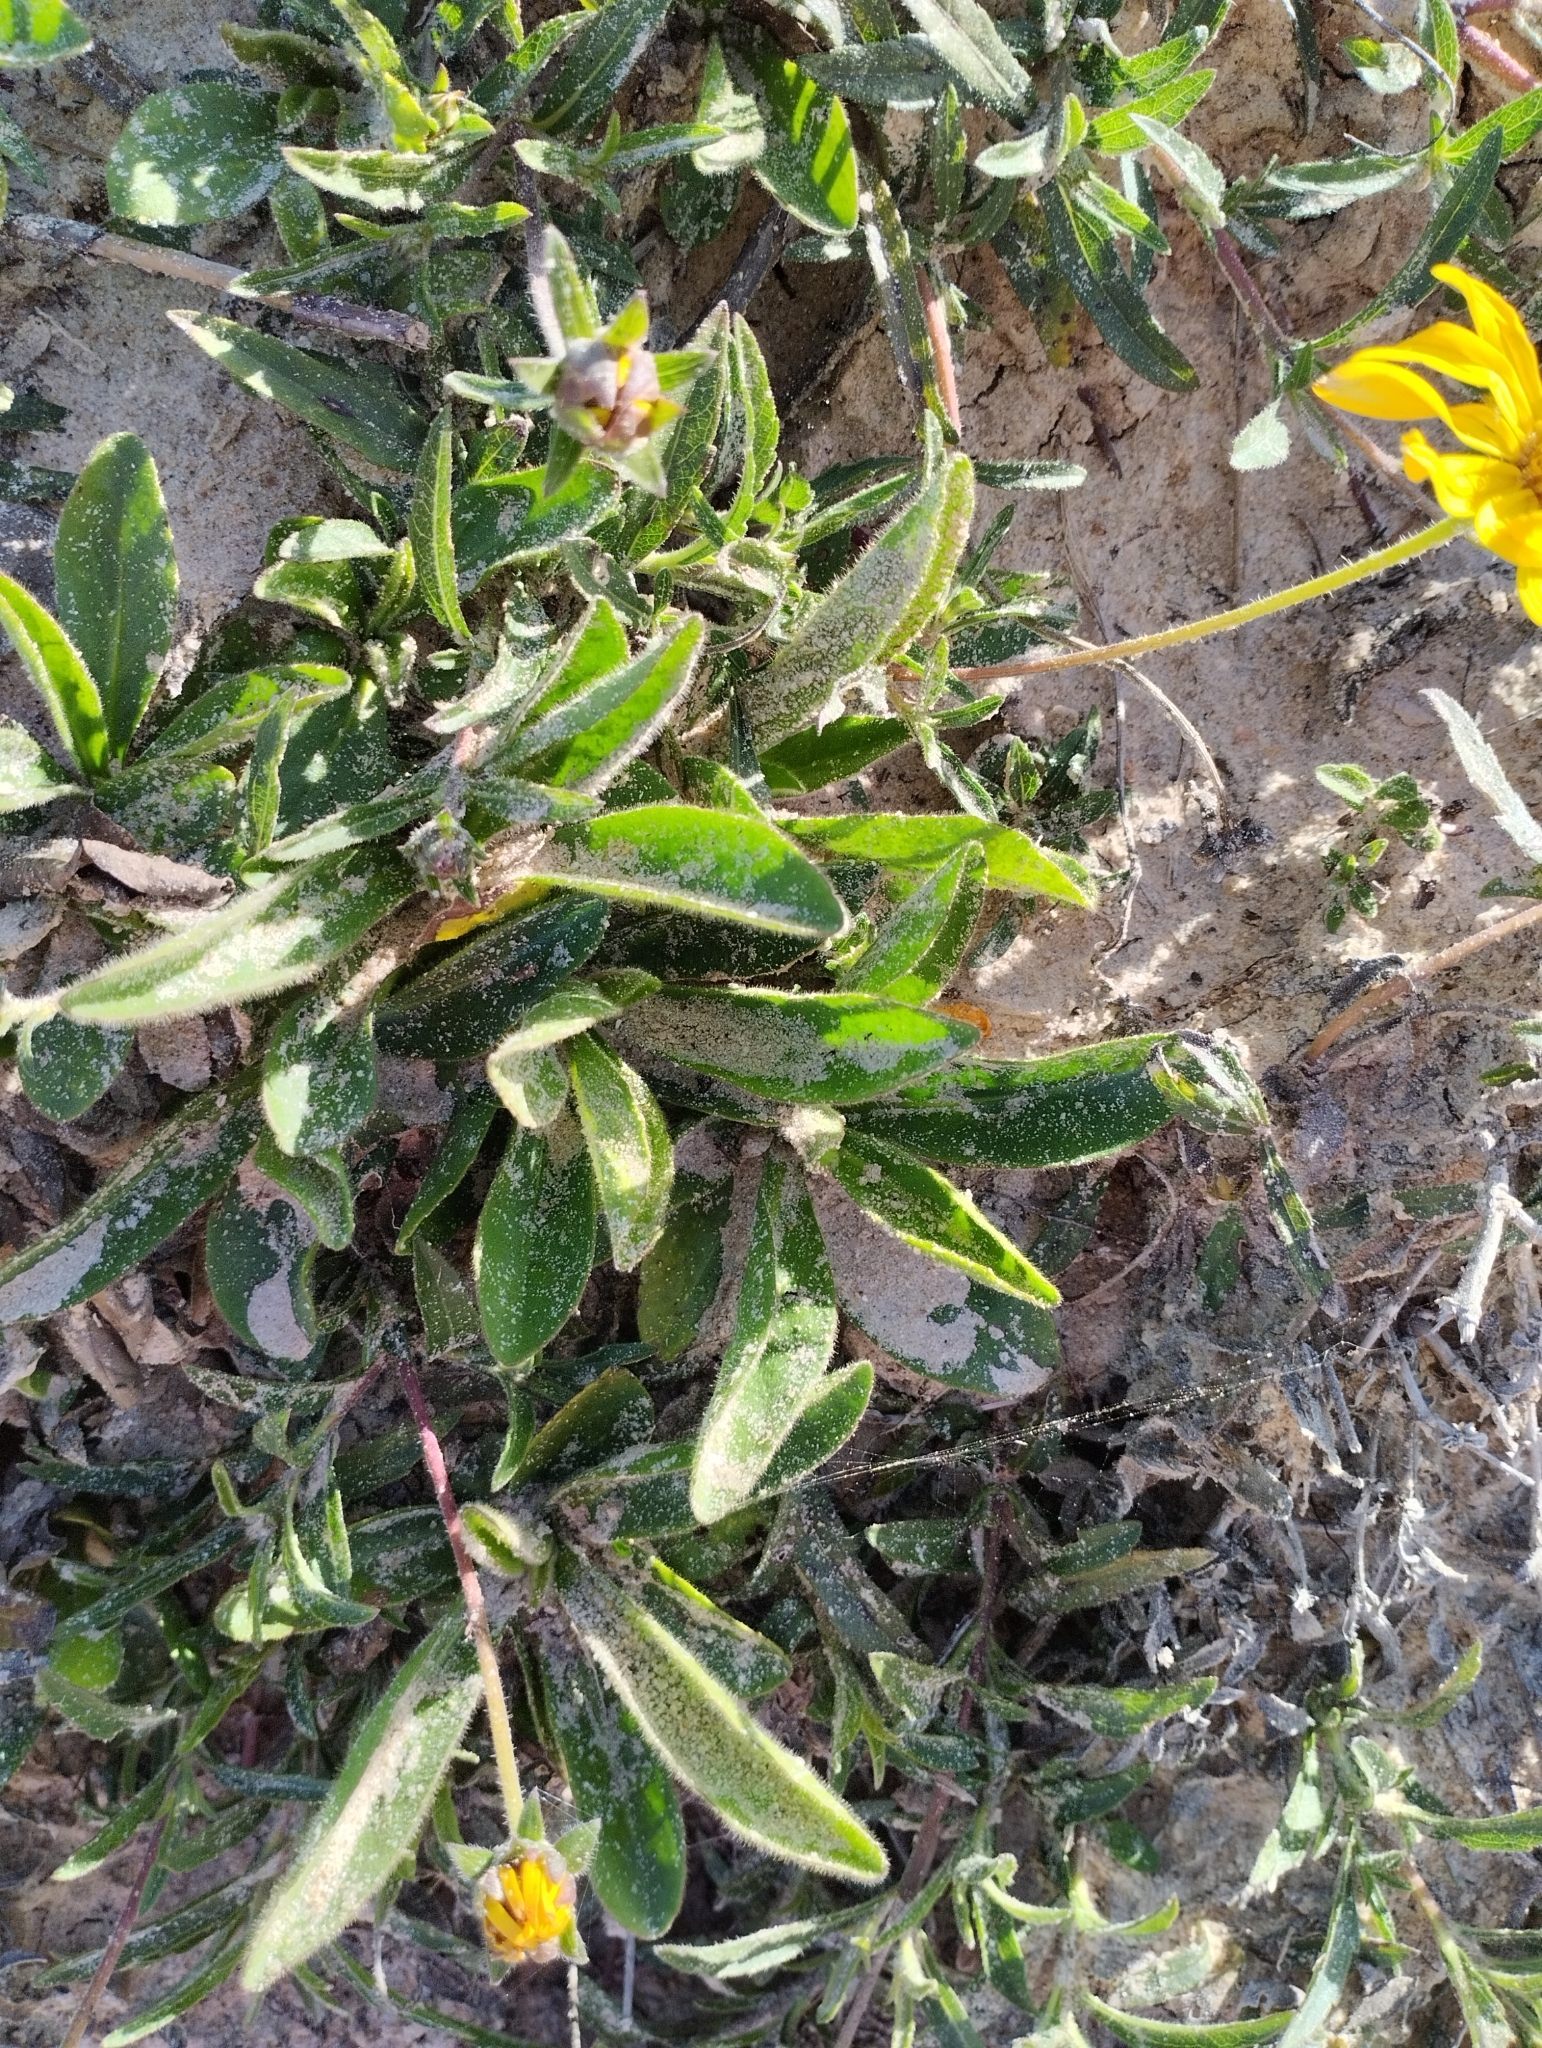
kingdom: Plantae
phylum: Tracheophyta
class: Magnoliopsida
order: Asterales
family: Asteraceae
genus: Wedelia
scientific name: Wedelia montevidensis
